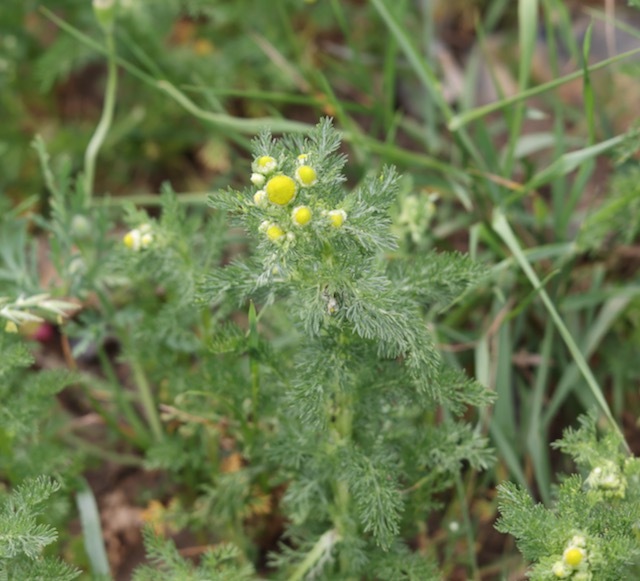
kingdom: Plantae
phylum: Tracheophyta
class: Magnoliopsida
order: Asterales
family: Asteraceae
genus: Matricaria
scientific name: Matricaria discoidea
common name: Disc mayweed
